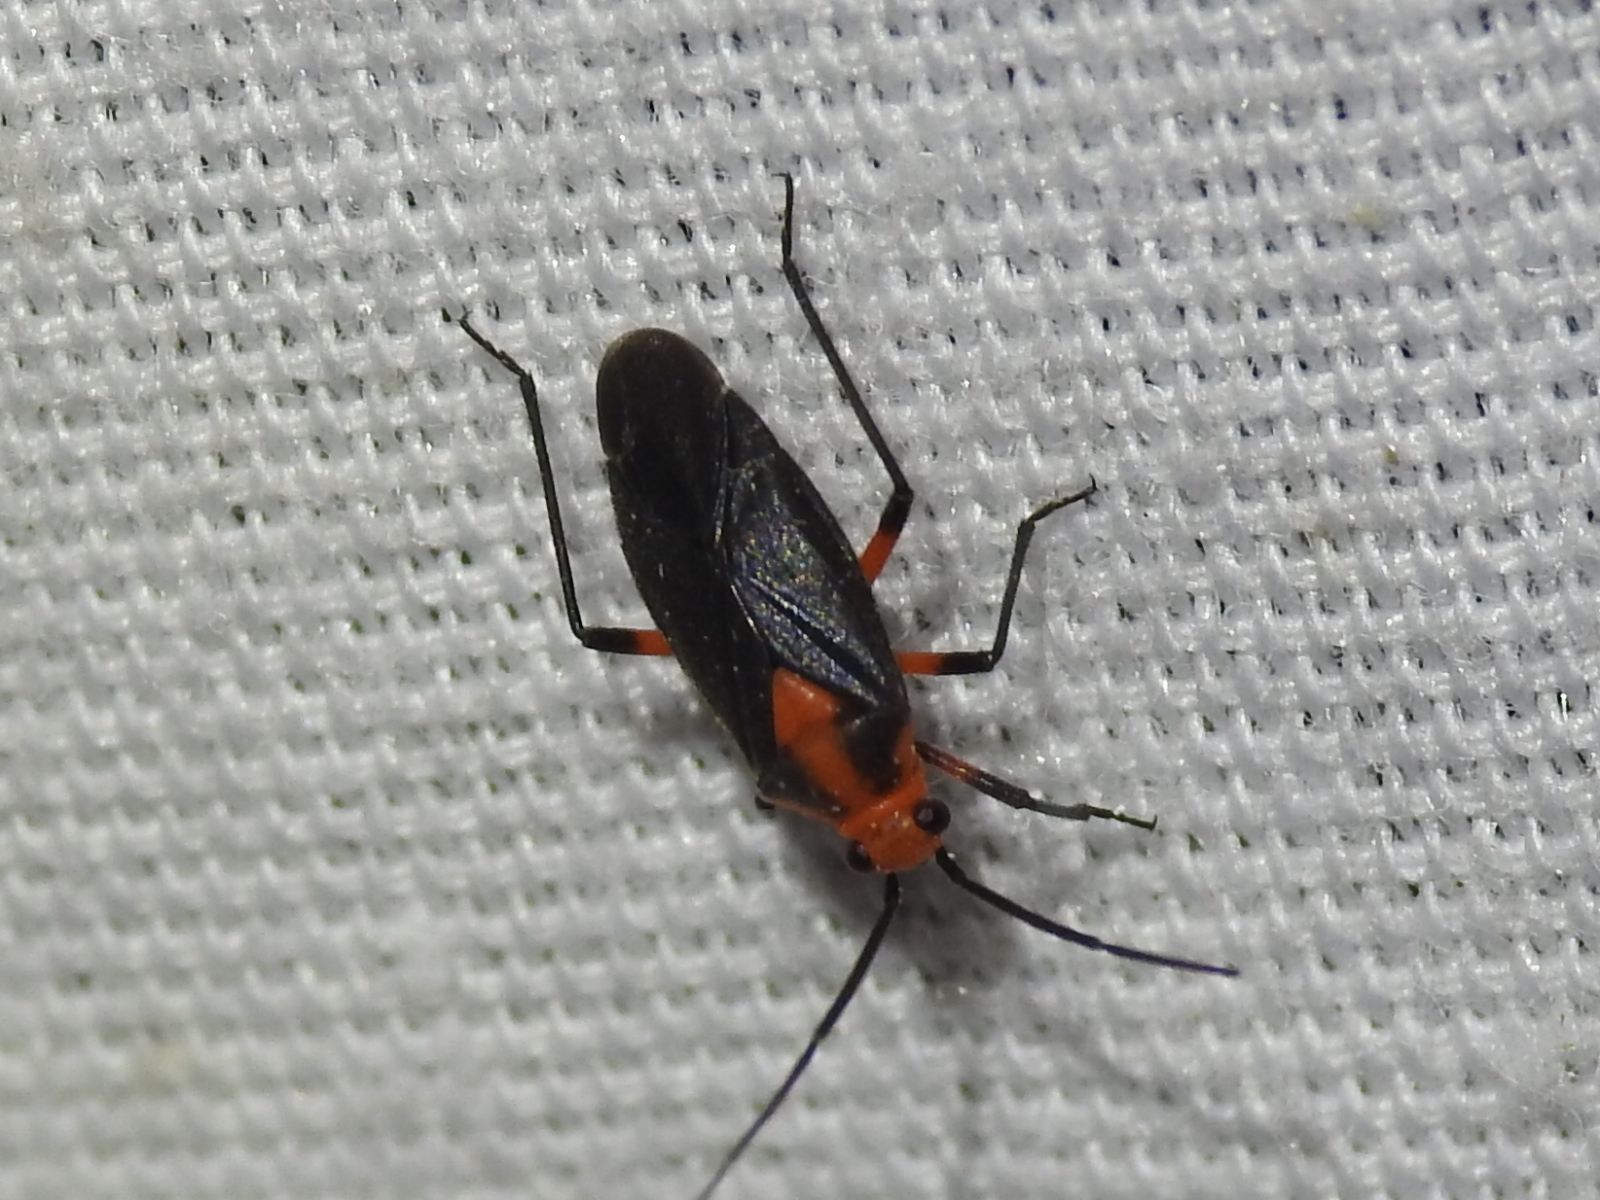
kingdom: Animalia
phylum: Arthropoda
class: Insecta
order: Hemiptera
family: Miridae
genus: Prepops
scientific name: Prepops rubrovittatus
